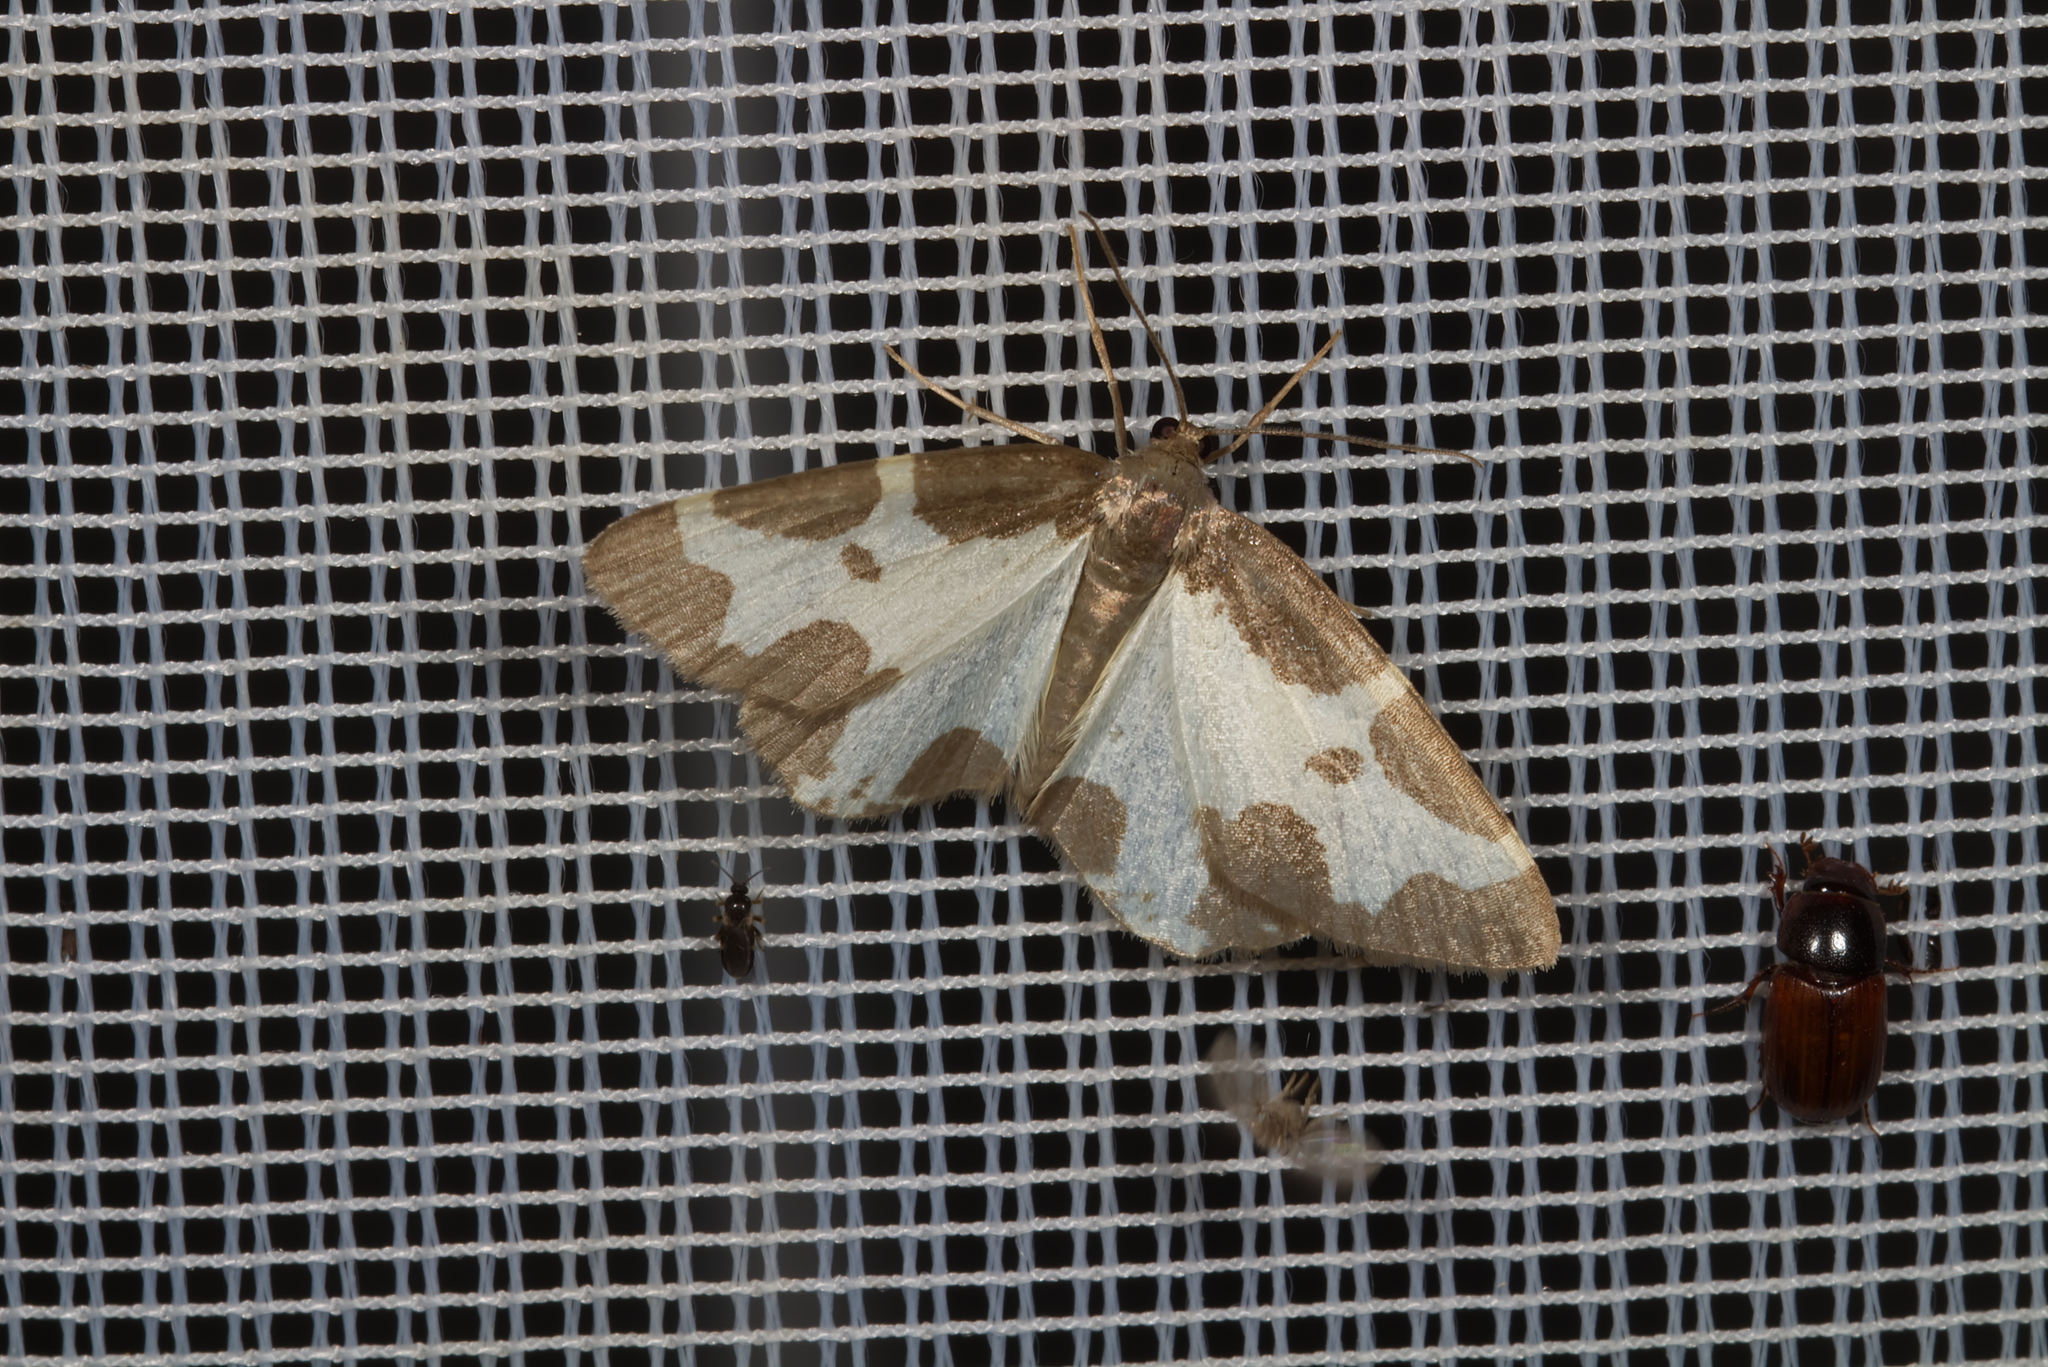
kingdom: Animalia
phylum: Arthropoda
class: Insecta
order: Lepidoptera
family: Geometridae
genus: Lomaspilis
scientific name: Lomaspilis marginata
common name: Clouded border
